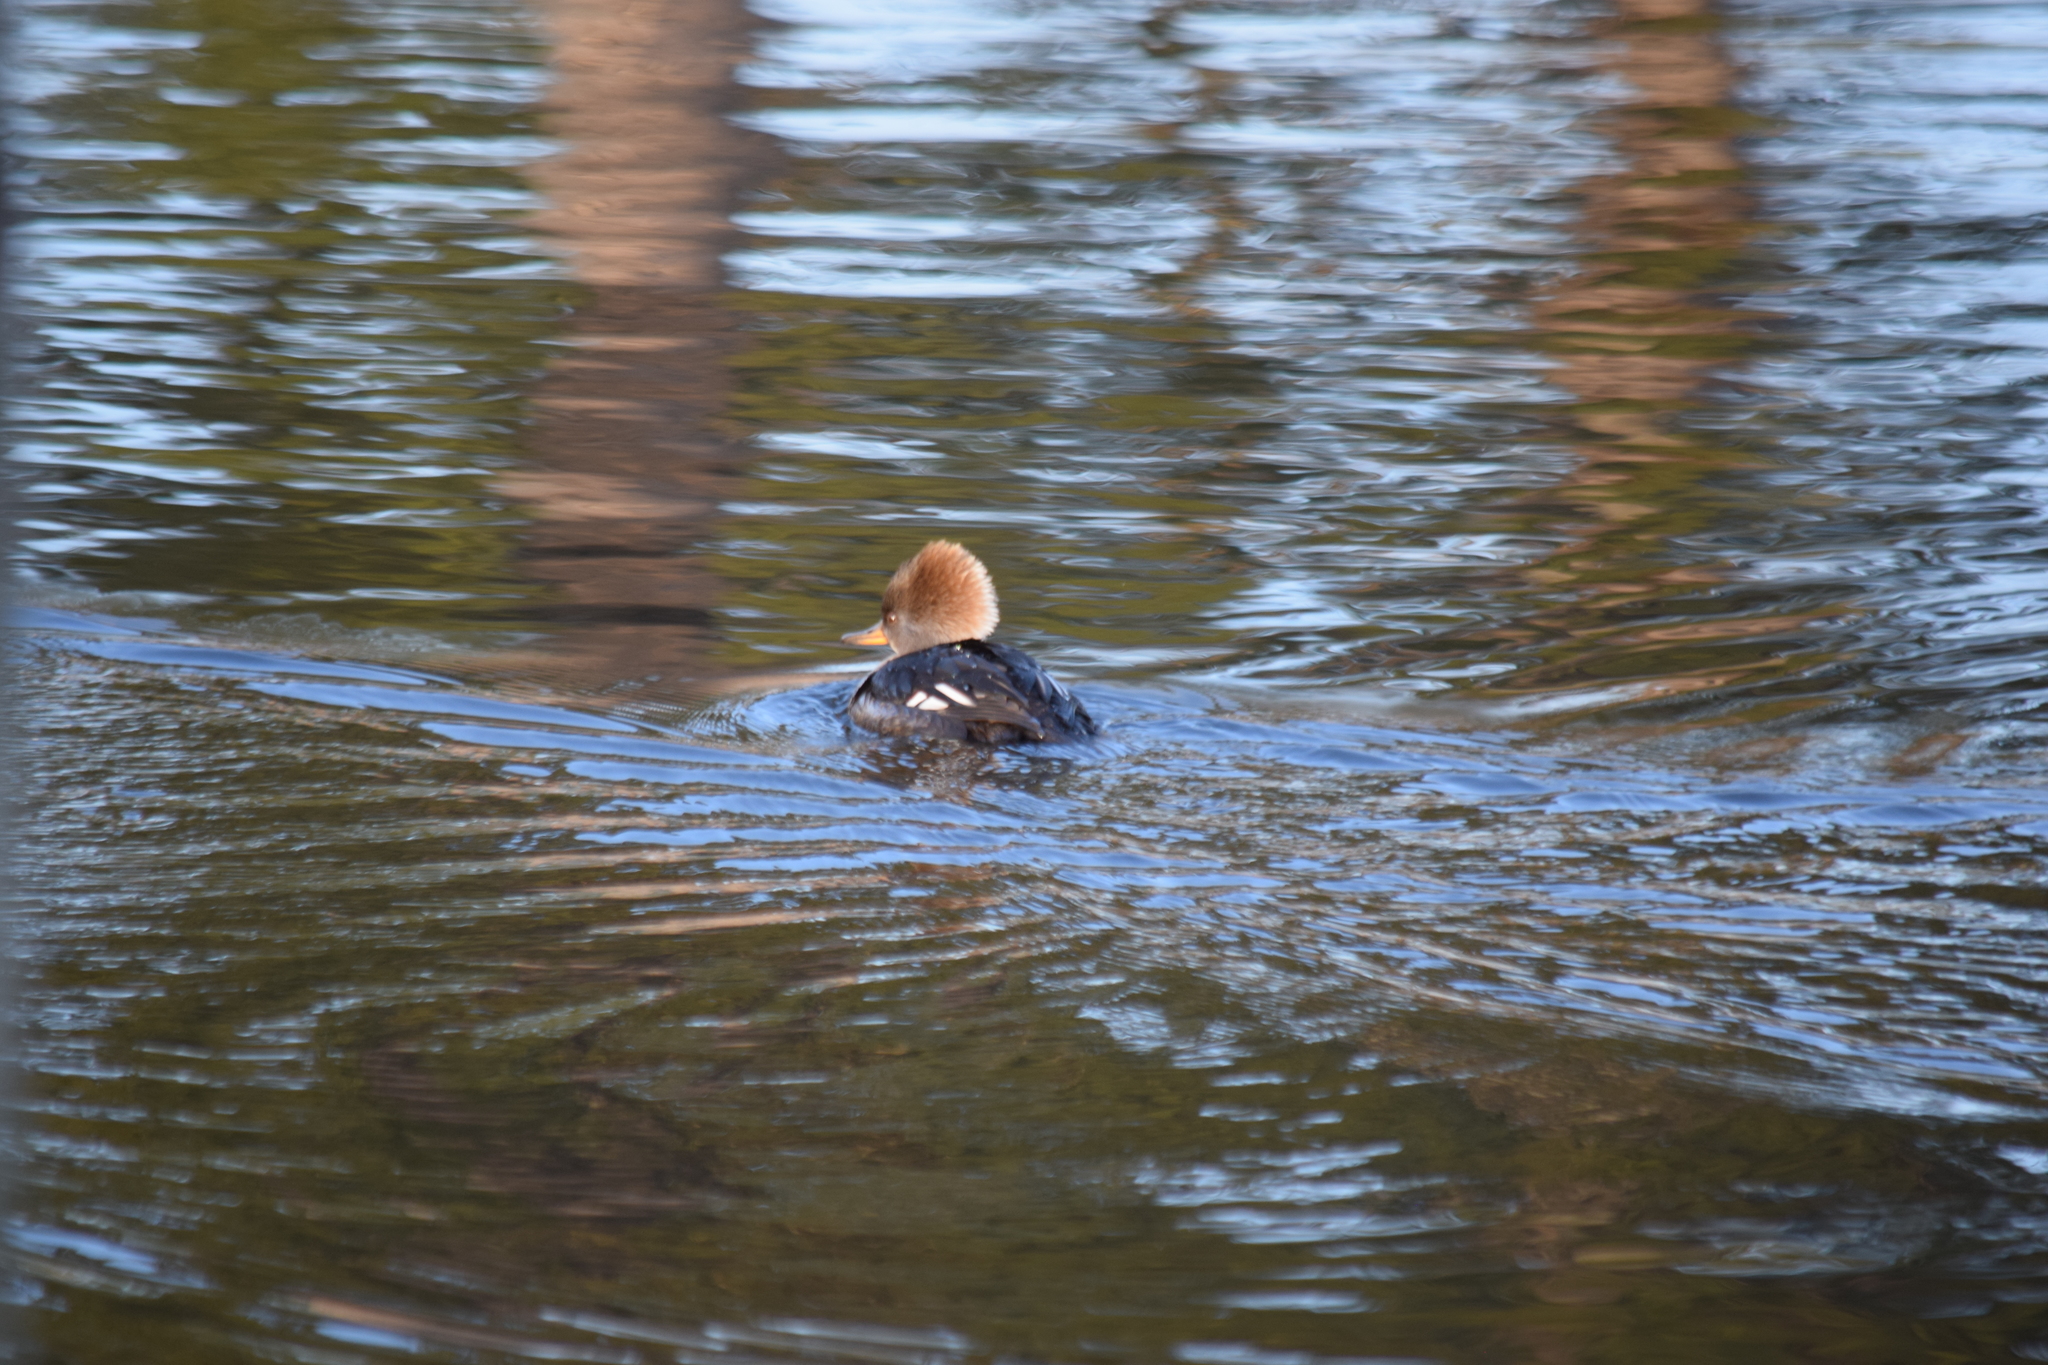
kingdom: Animalia
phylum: Chordata
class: Aves
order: Anseriformes
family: Anatidae
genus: Lophodytes
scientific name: Lophodytes cucullatus
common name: Hooded merganser
